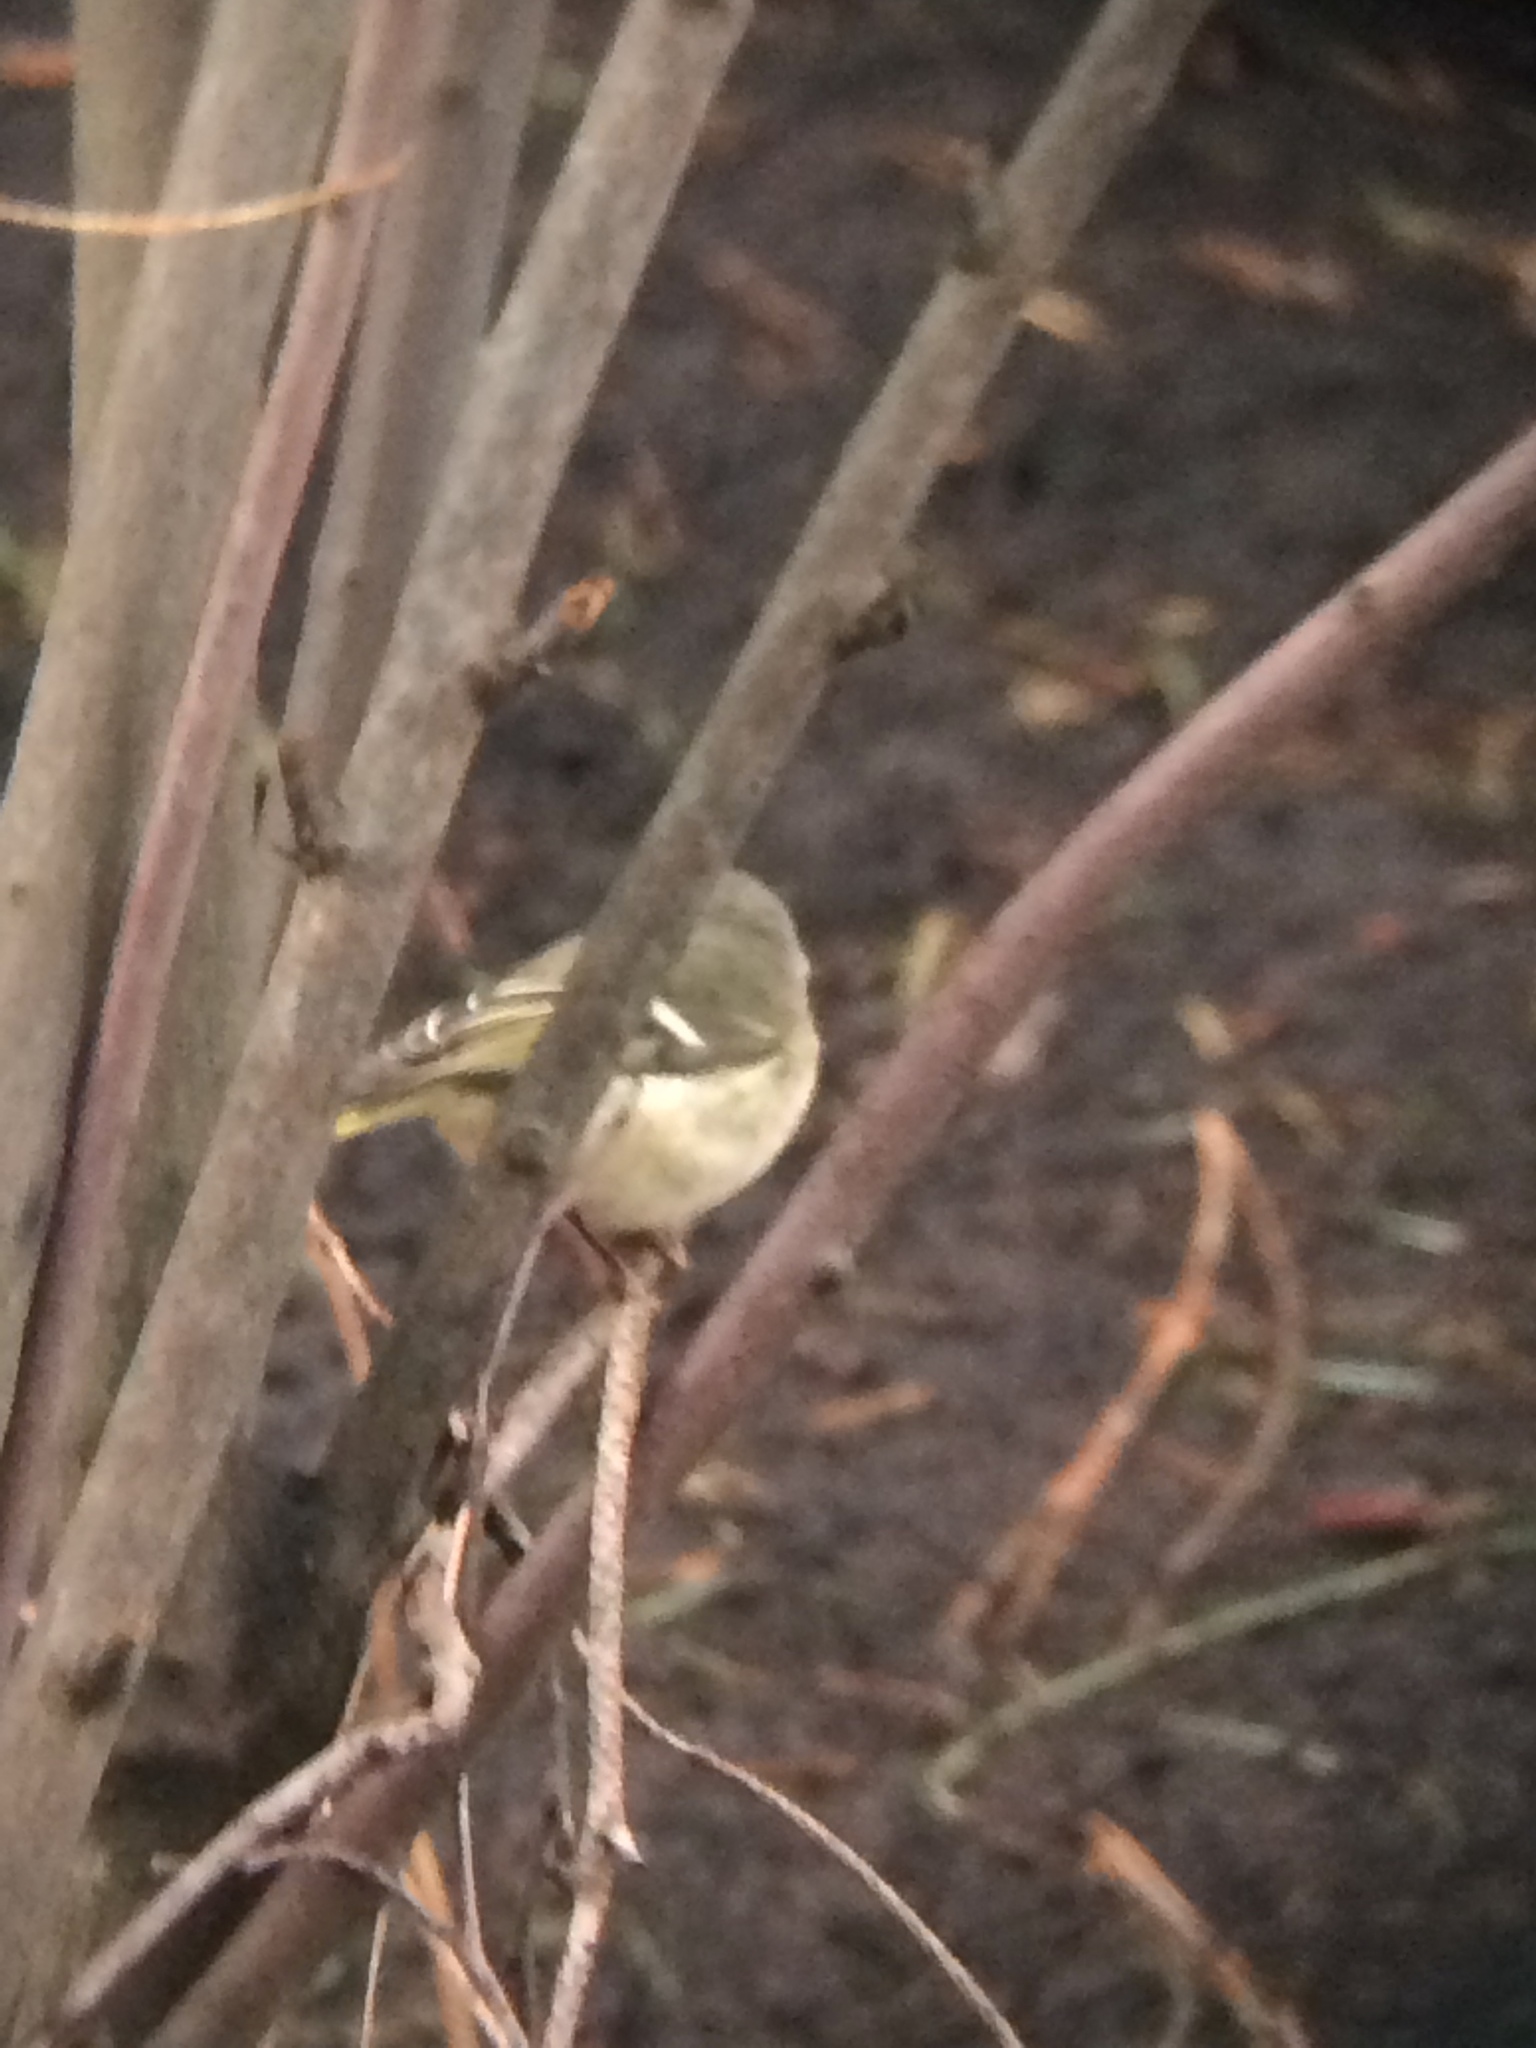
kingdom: Animalia
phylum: Chordata
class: Aves
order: Passeriformes
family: Regulidae
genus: Regulus
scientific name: Regulus calendula
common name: Ruby-crowned kinglet
